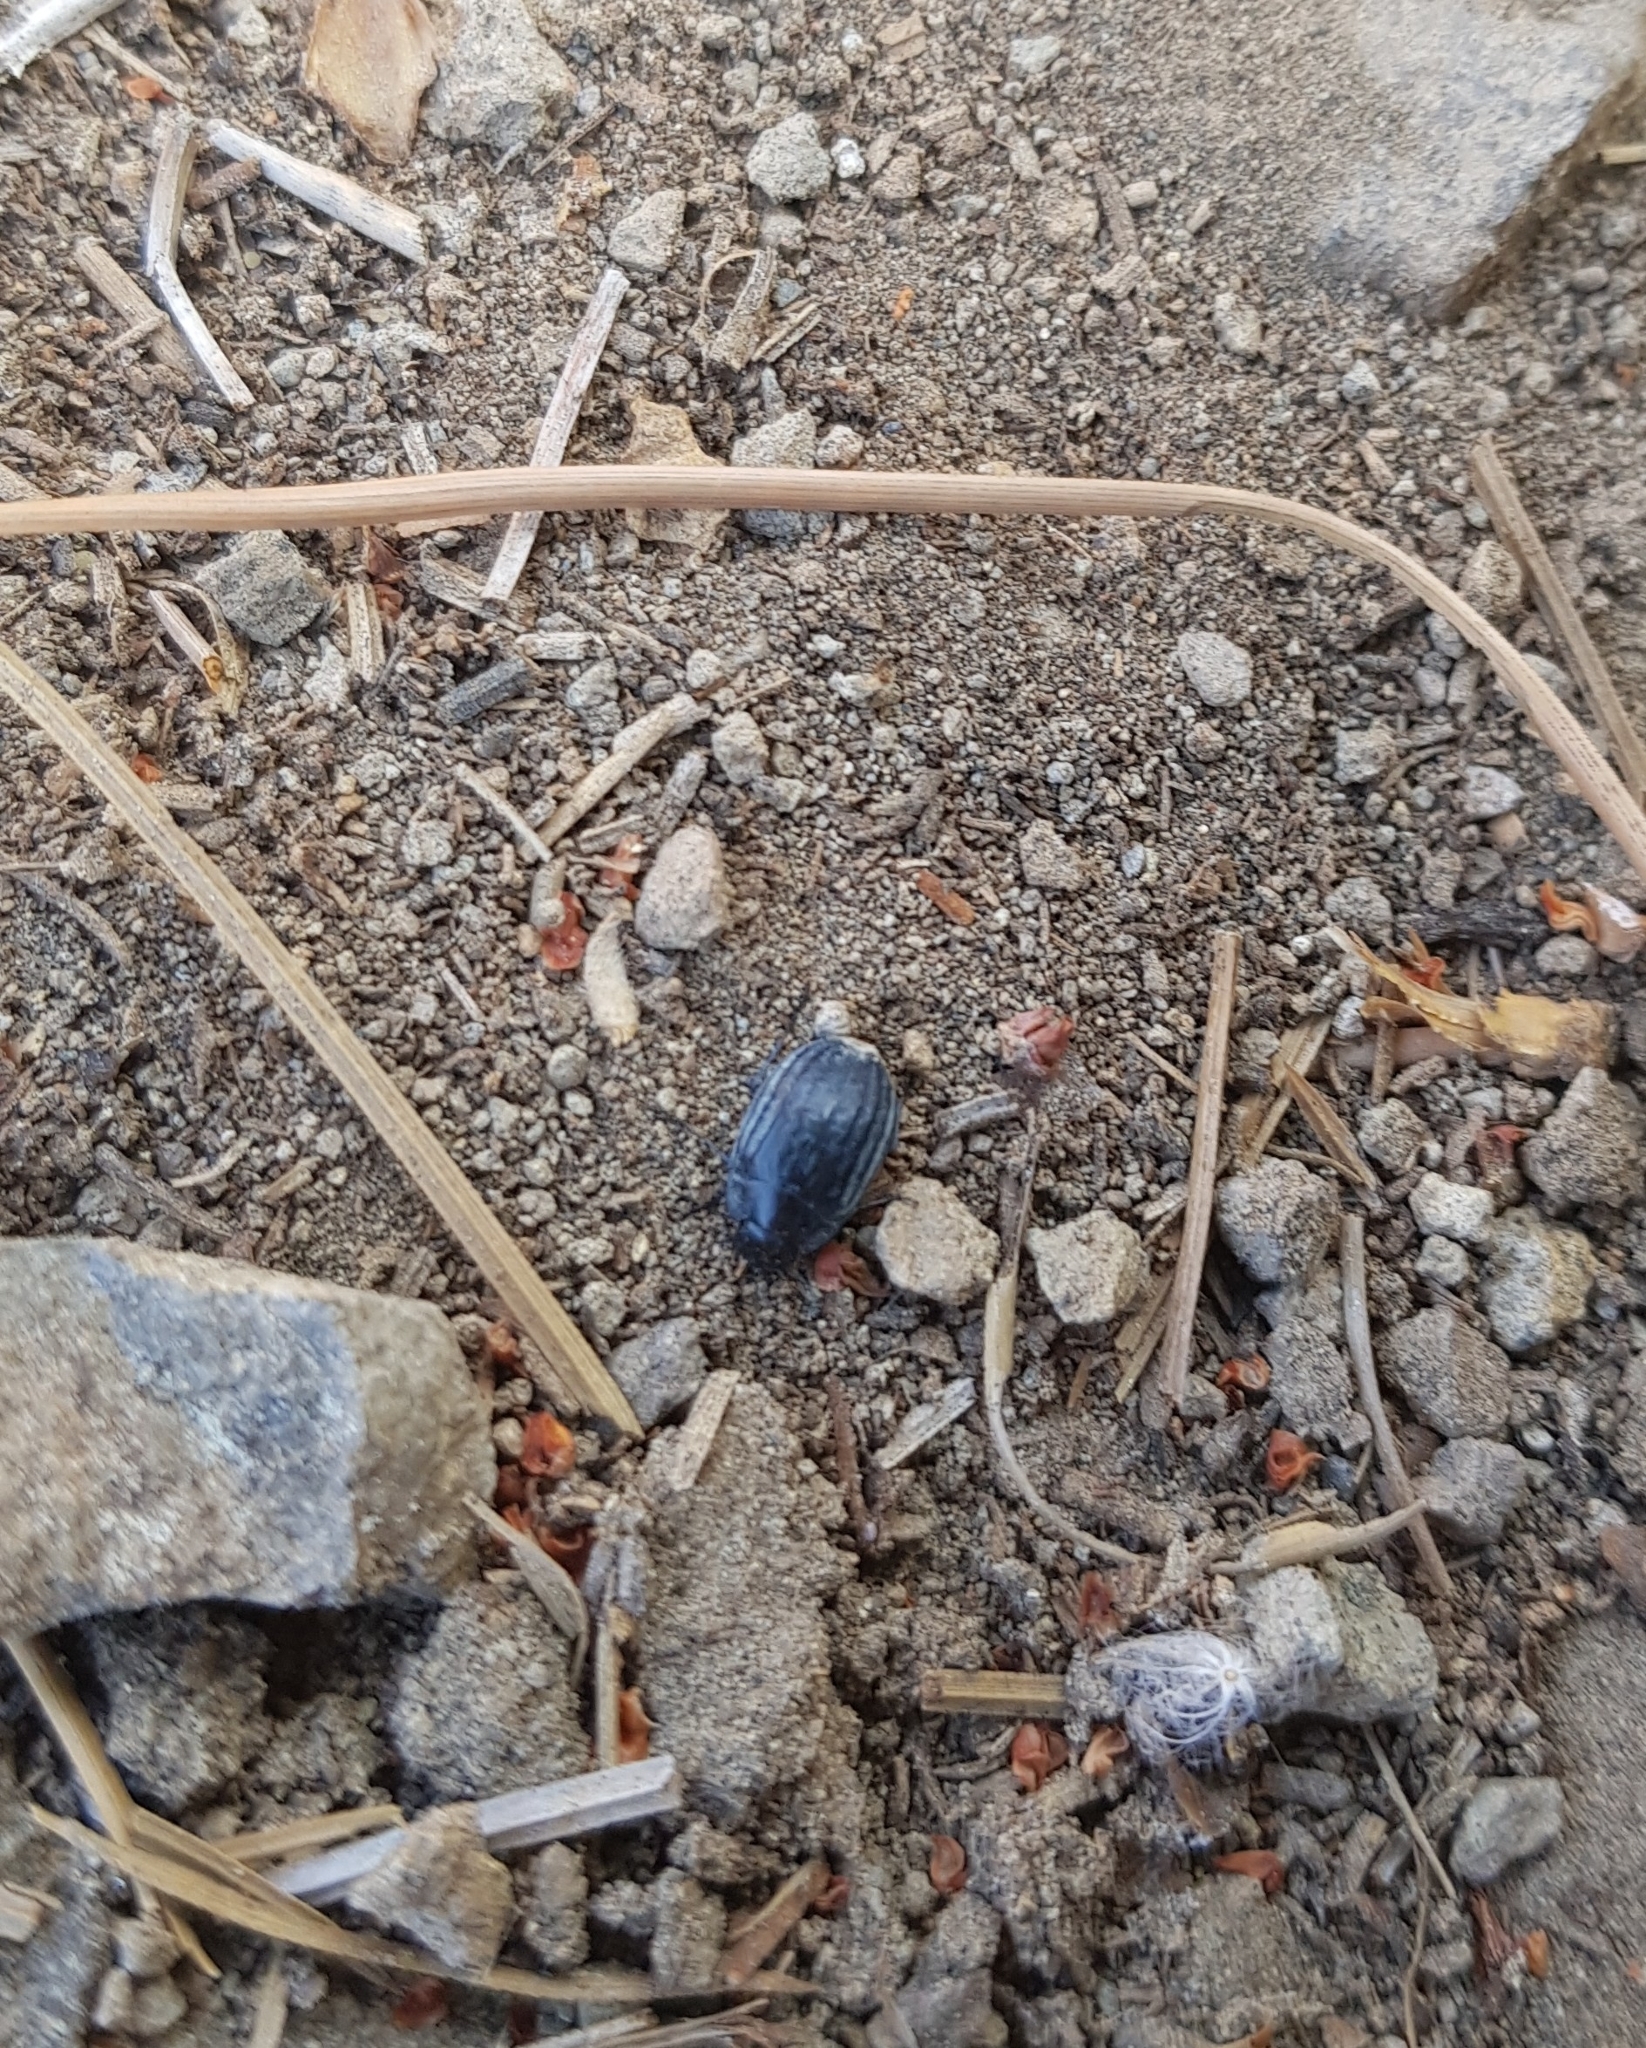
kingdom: Animalia
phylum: Arthropoda
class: Insecta
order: Coleoptera
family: Tenebrionidae
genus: Zophosis
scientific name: Zophosis bicarinata
